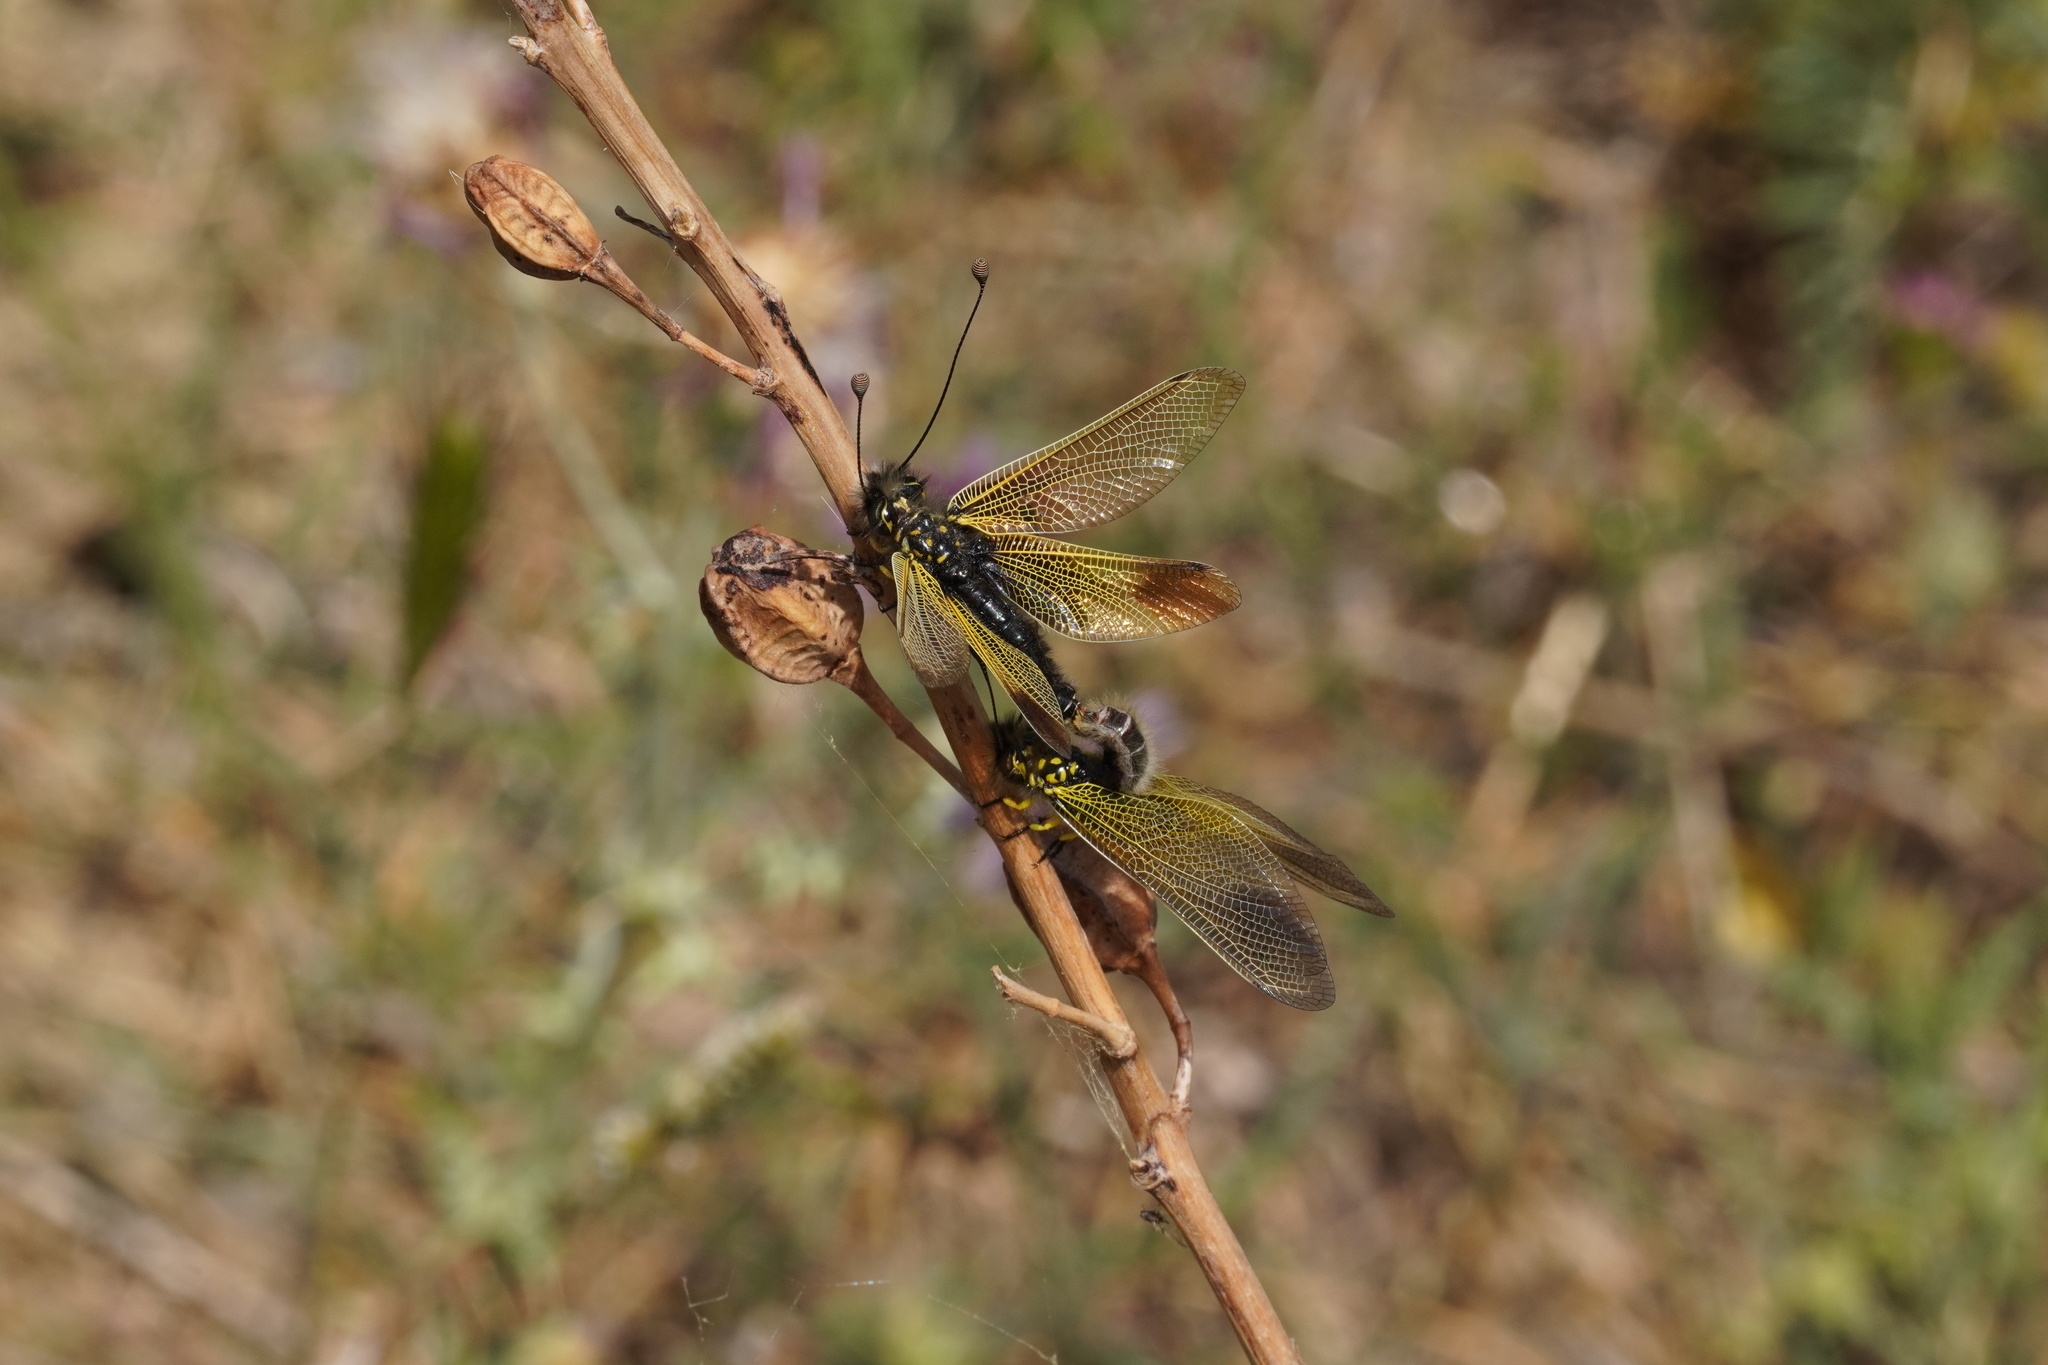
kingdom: Animalia
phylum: Arthropoda
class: Insecta
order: Neuroptera
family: Ascalaphidae
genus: Libelloides
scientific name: Libelloides ictericus
